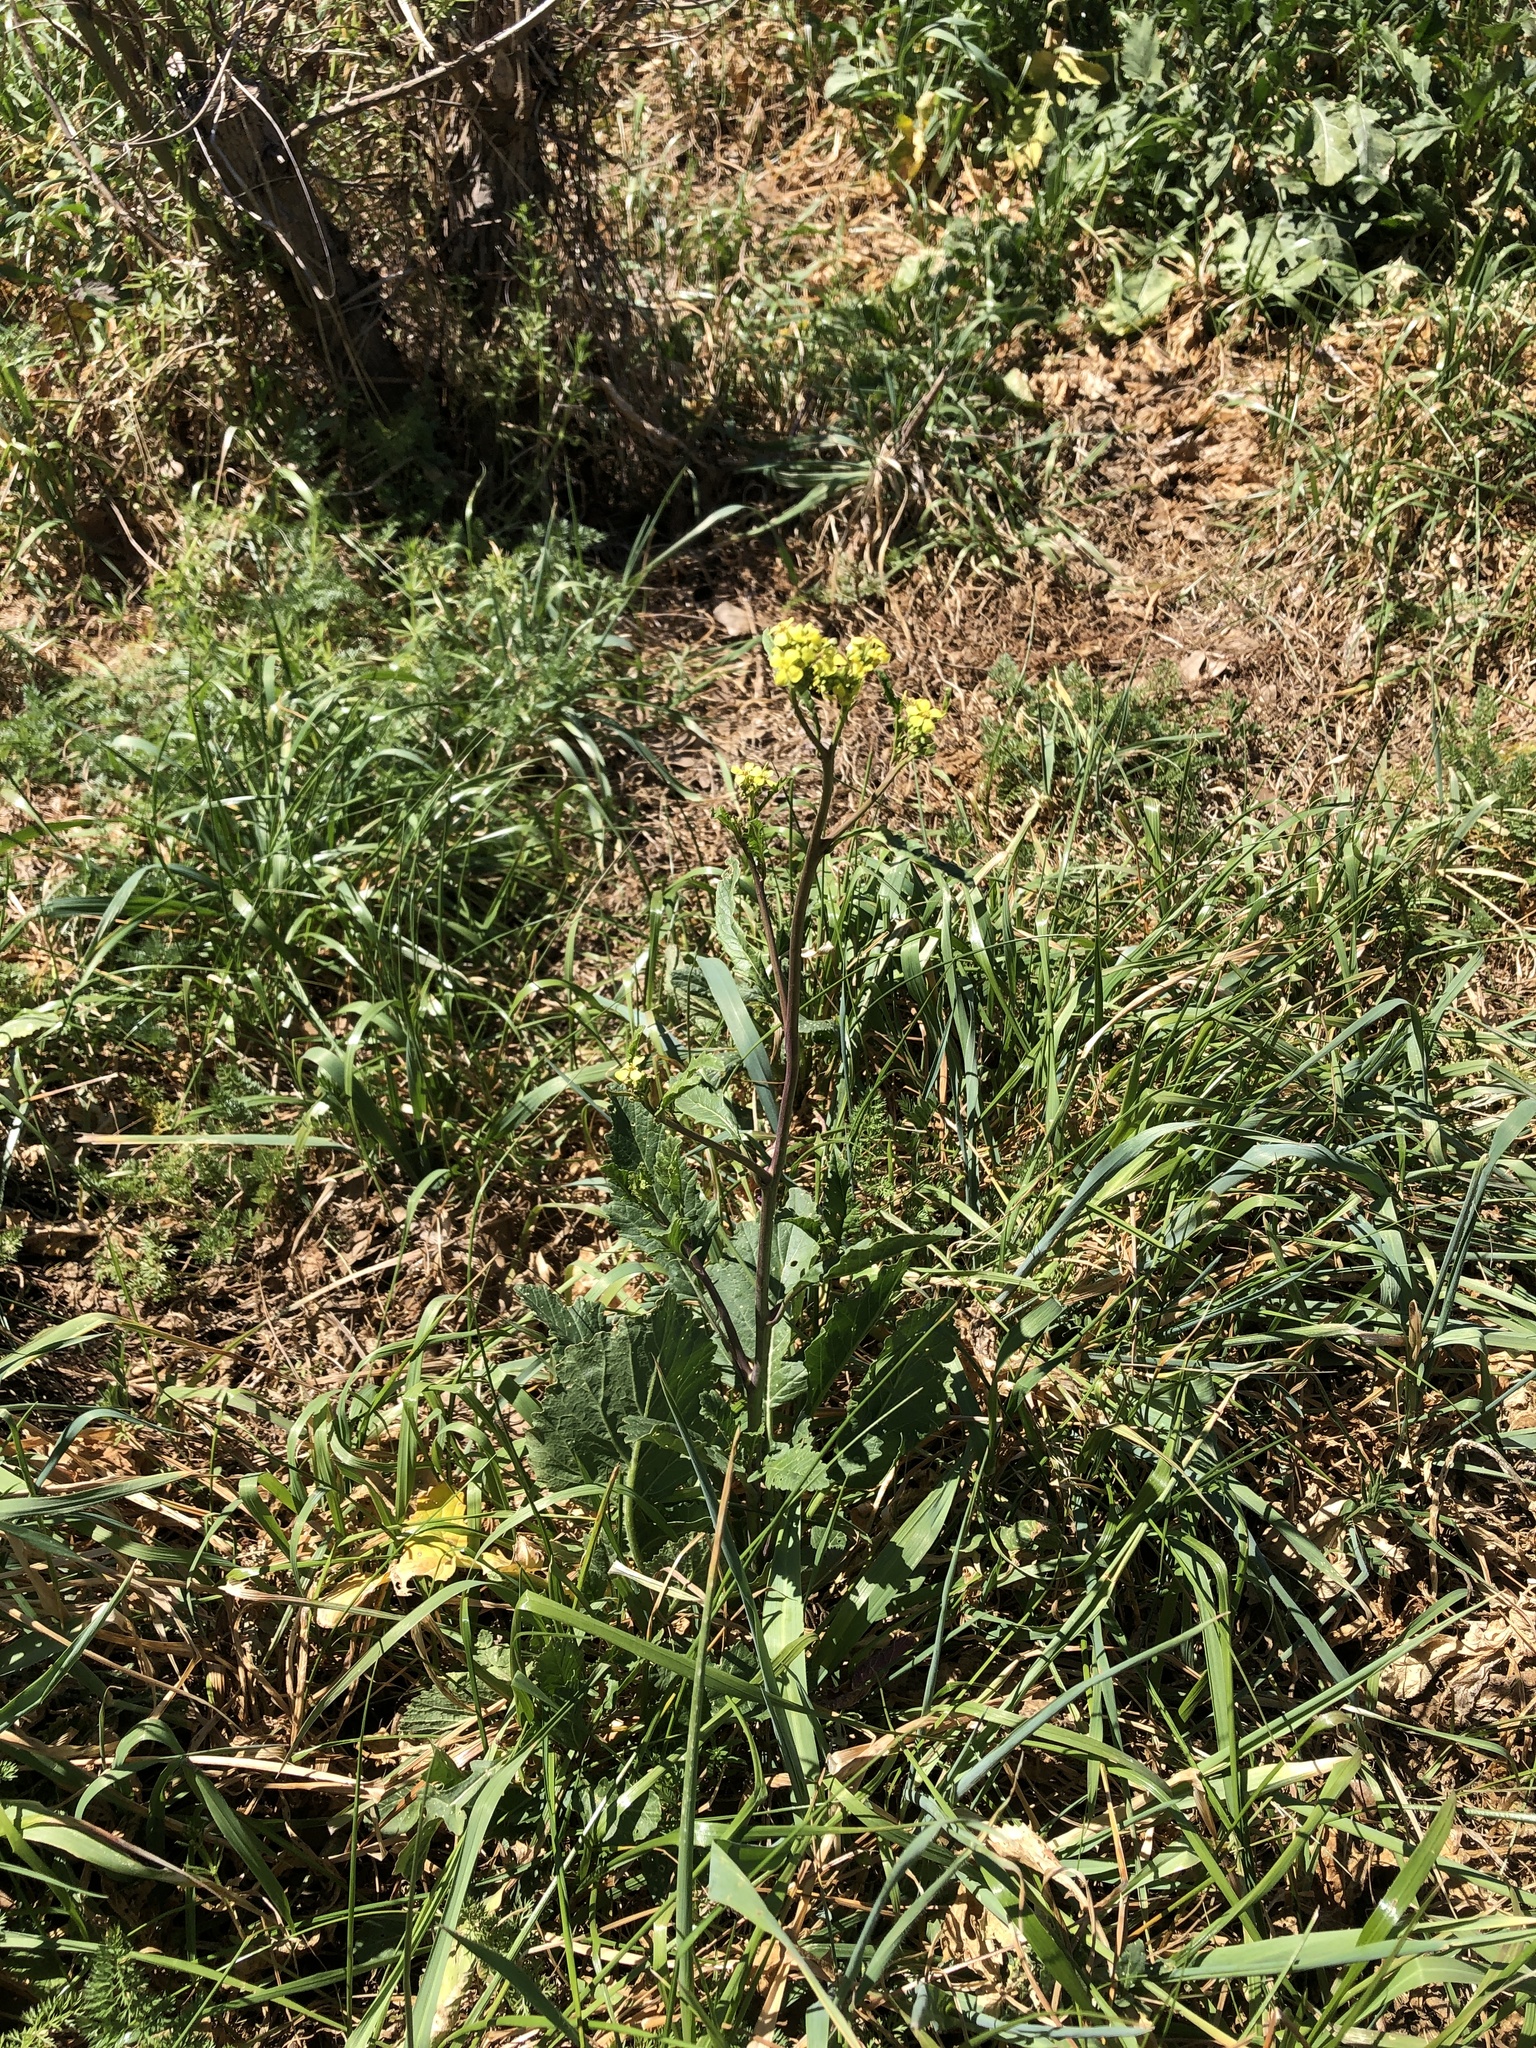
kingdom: Plantae
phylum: Tracheophyta
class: Magnoliopsida
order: Brassicales
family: Brassicaceae
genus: Rapistrum
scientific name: Rapistrum rugosum
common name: Annual bastardcabbage
